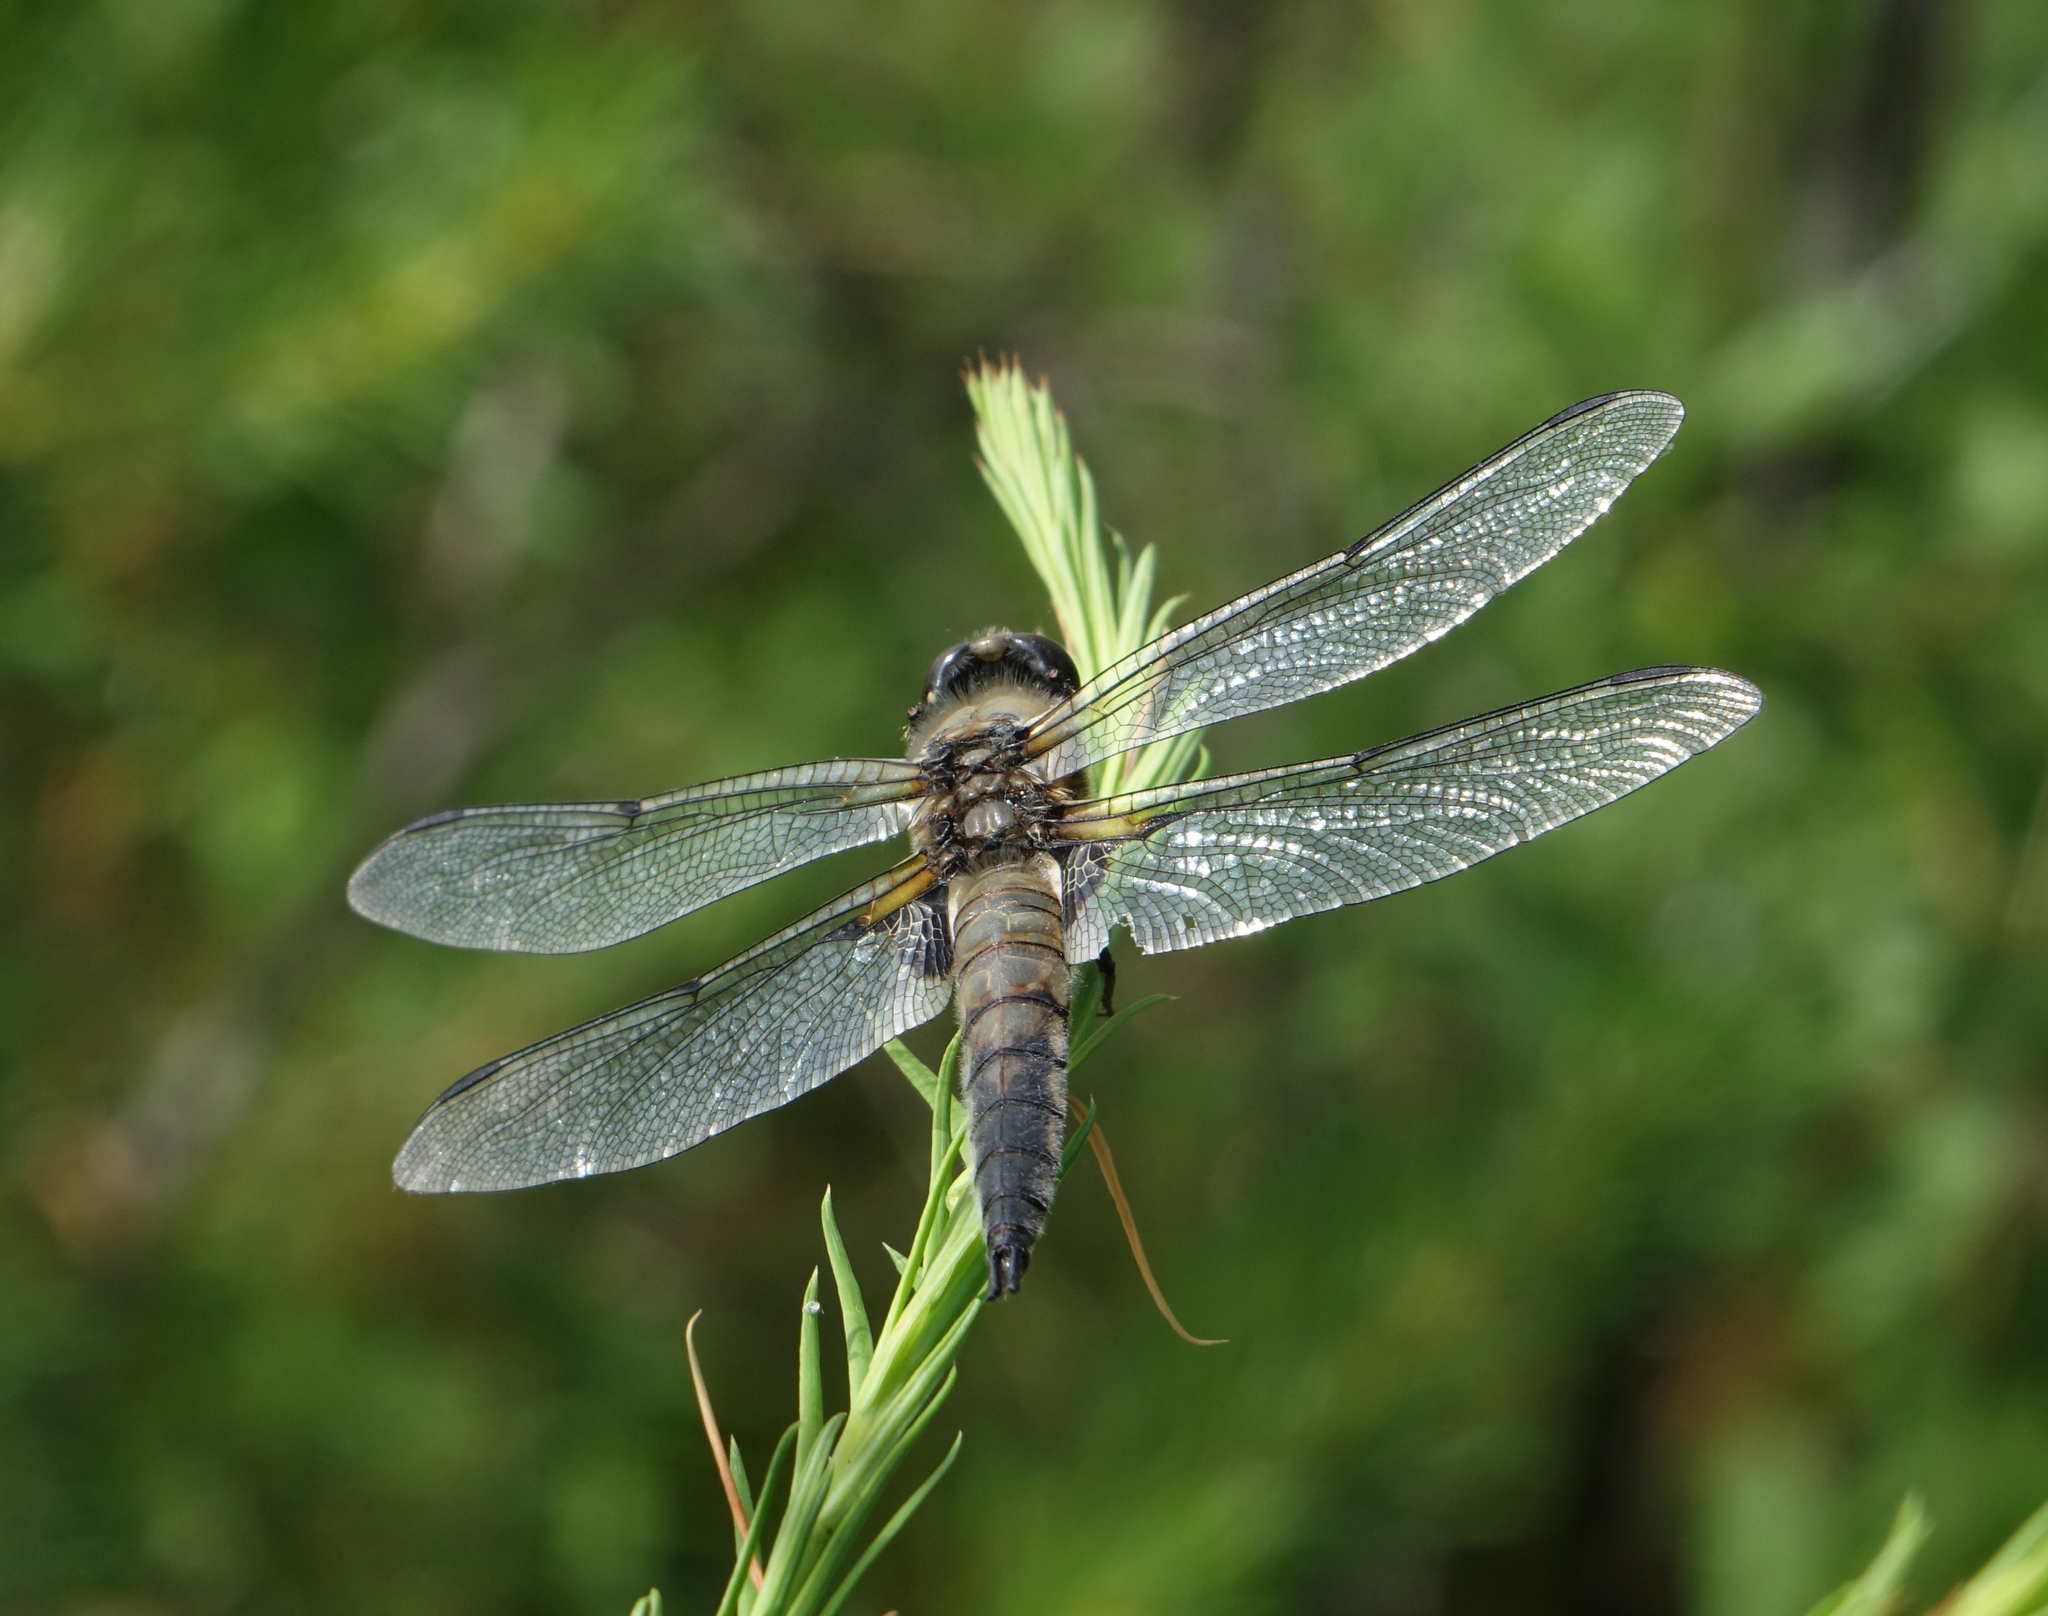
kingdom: Animalia
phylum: Arthropoda
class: Insecta
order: Odonata
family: Libellulidae
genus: Libellula
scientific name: Libellula quadrimaculata
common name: Four-spotted chaser
